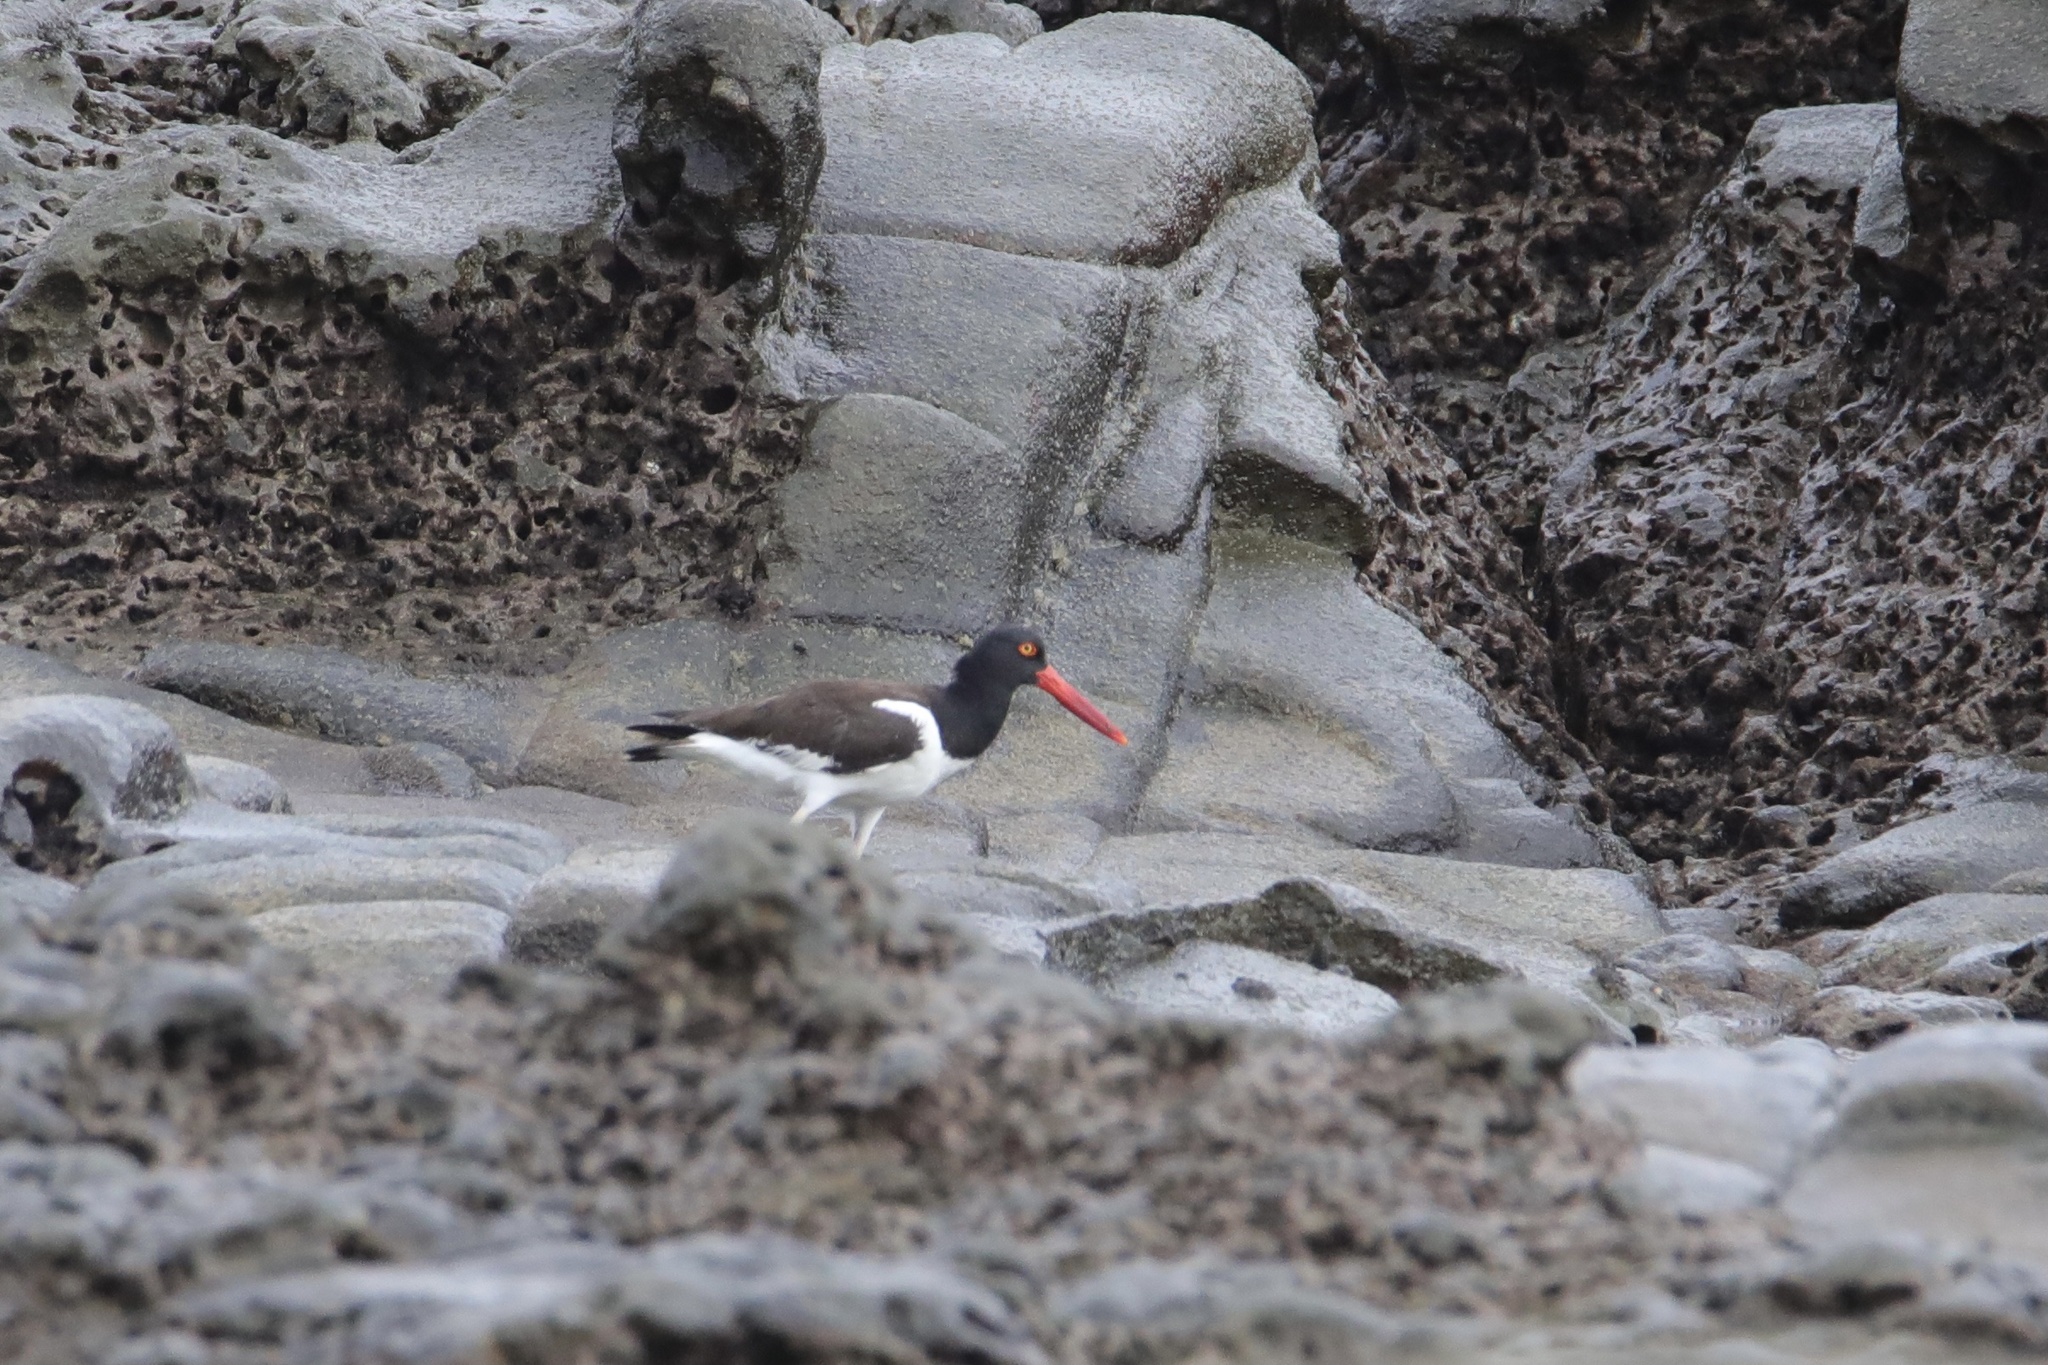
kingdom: Animalia
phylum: Chordata
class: Aves
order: Charadriiformes
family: Haematopodidae
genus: Haematopus
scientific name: Haematopus palliatus
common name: American oystercatcher
